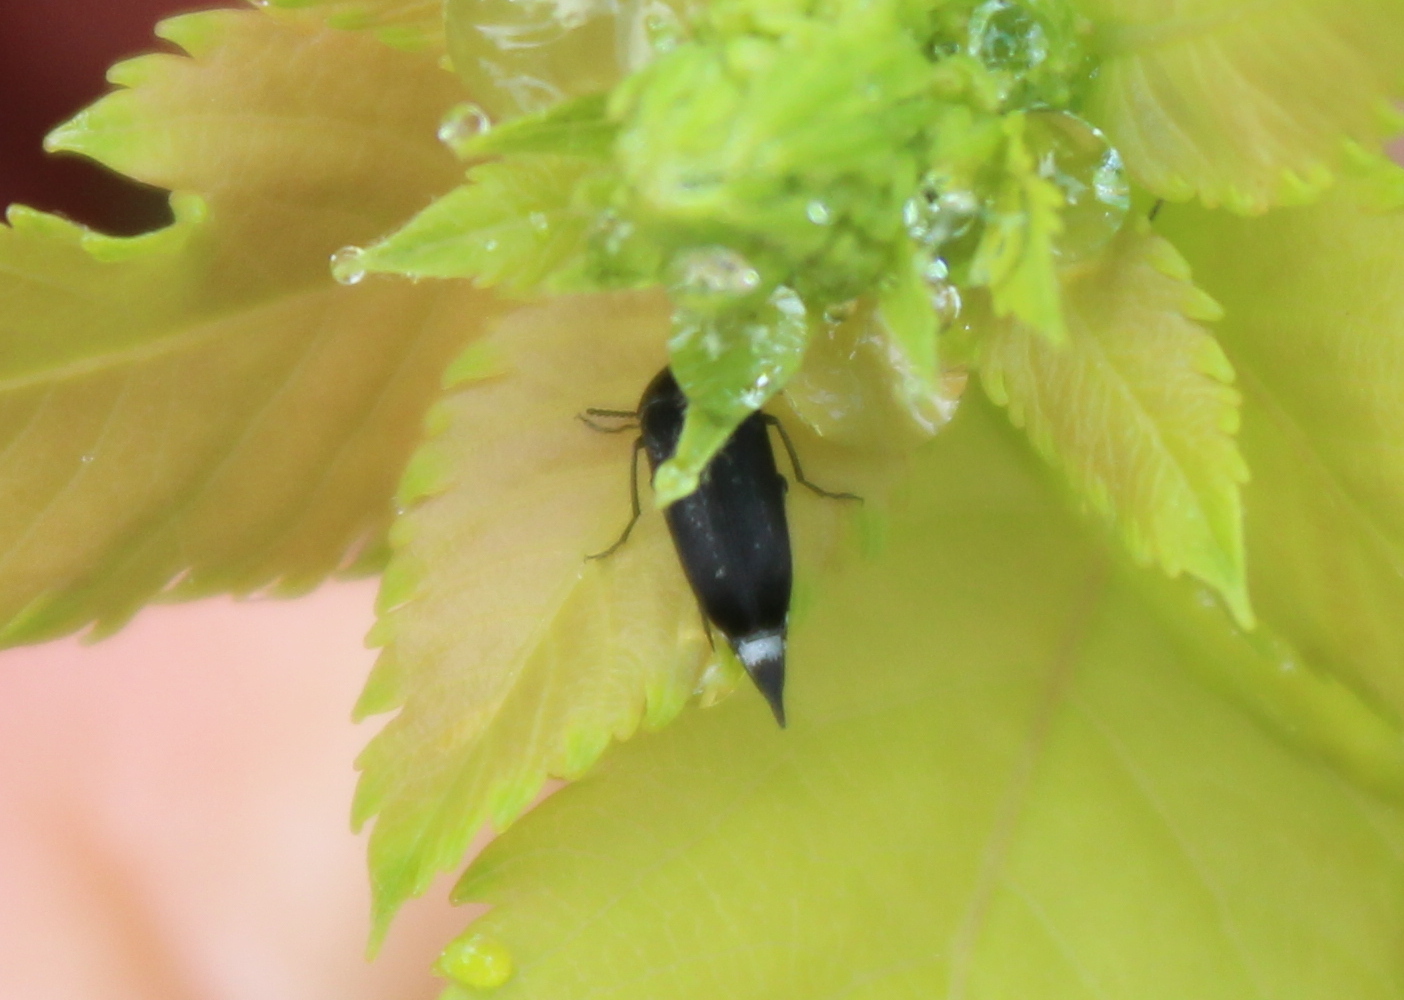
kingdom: Animalia
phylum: Arthropoda
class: Insecta
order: Coleoptera
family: Mordellidae
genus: Mordella
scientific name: Mordella marginata
